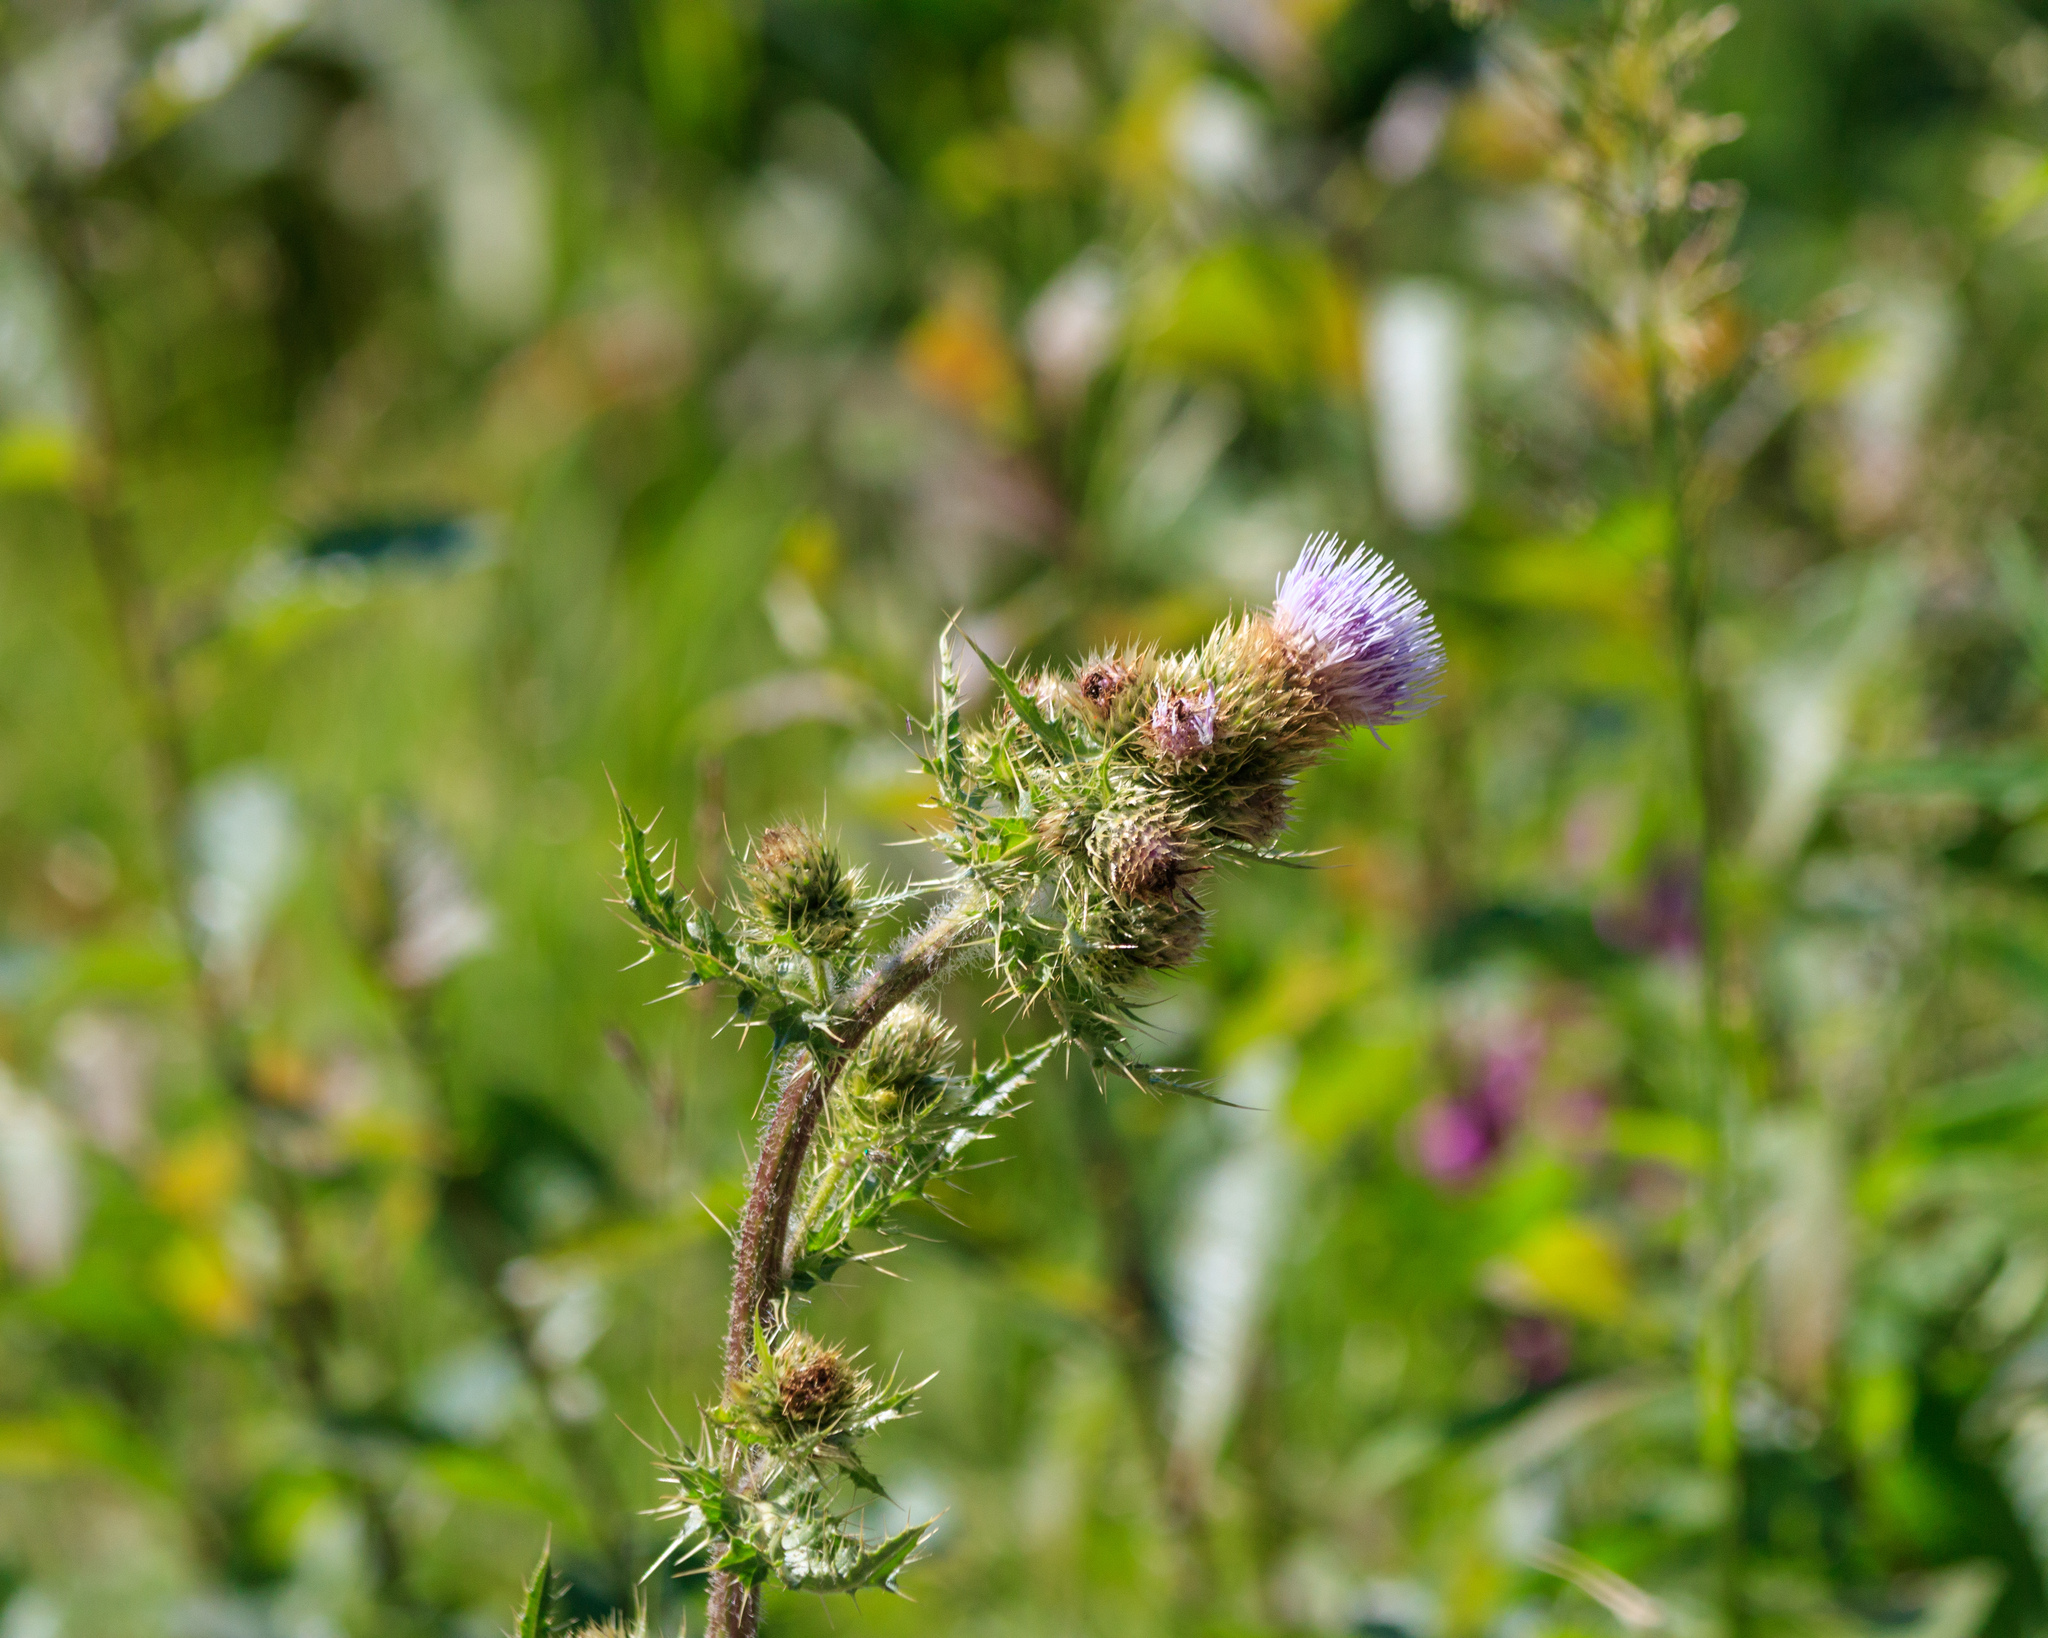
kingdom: Plantae
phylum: Tracheophyta
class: Magnoliopsida
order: Asterales
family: Asteraceae
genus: Cirsium
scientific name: Cirsium sieversii
